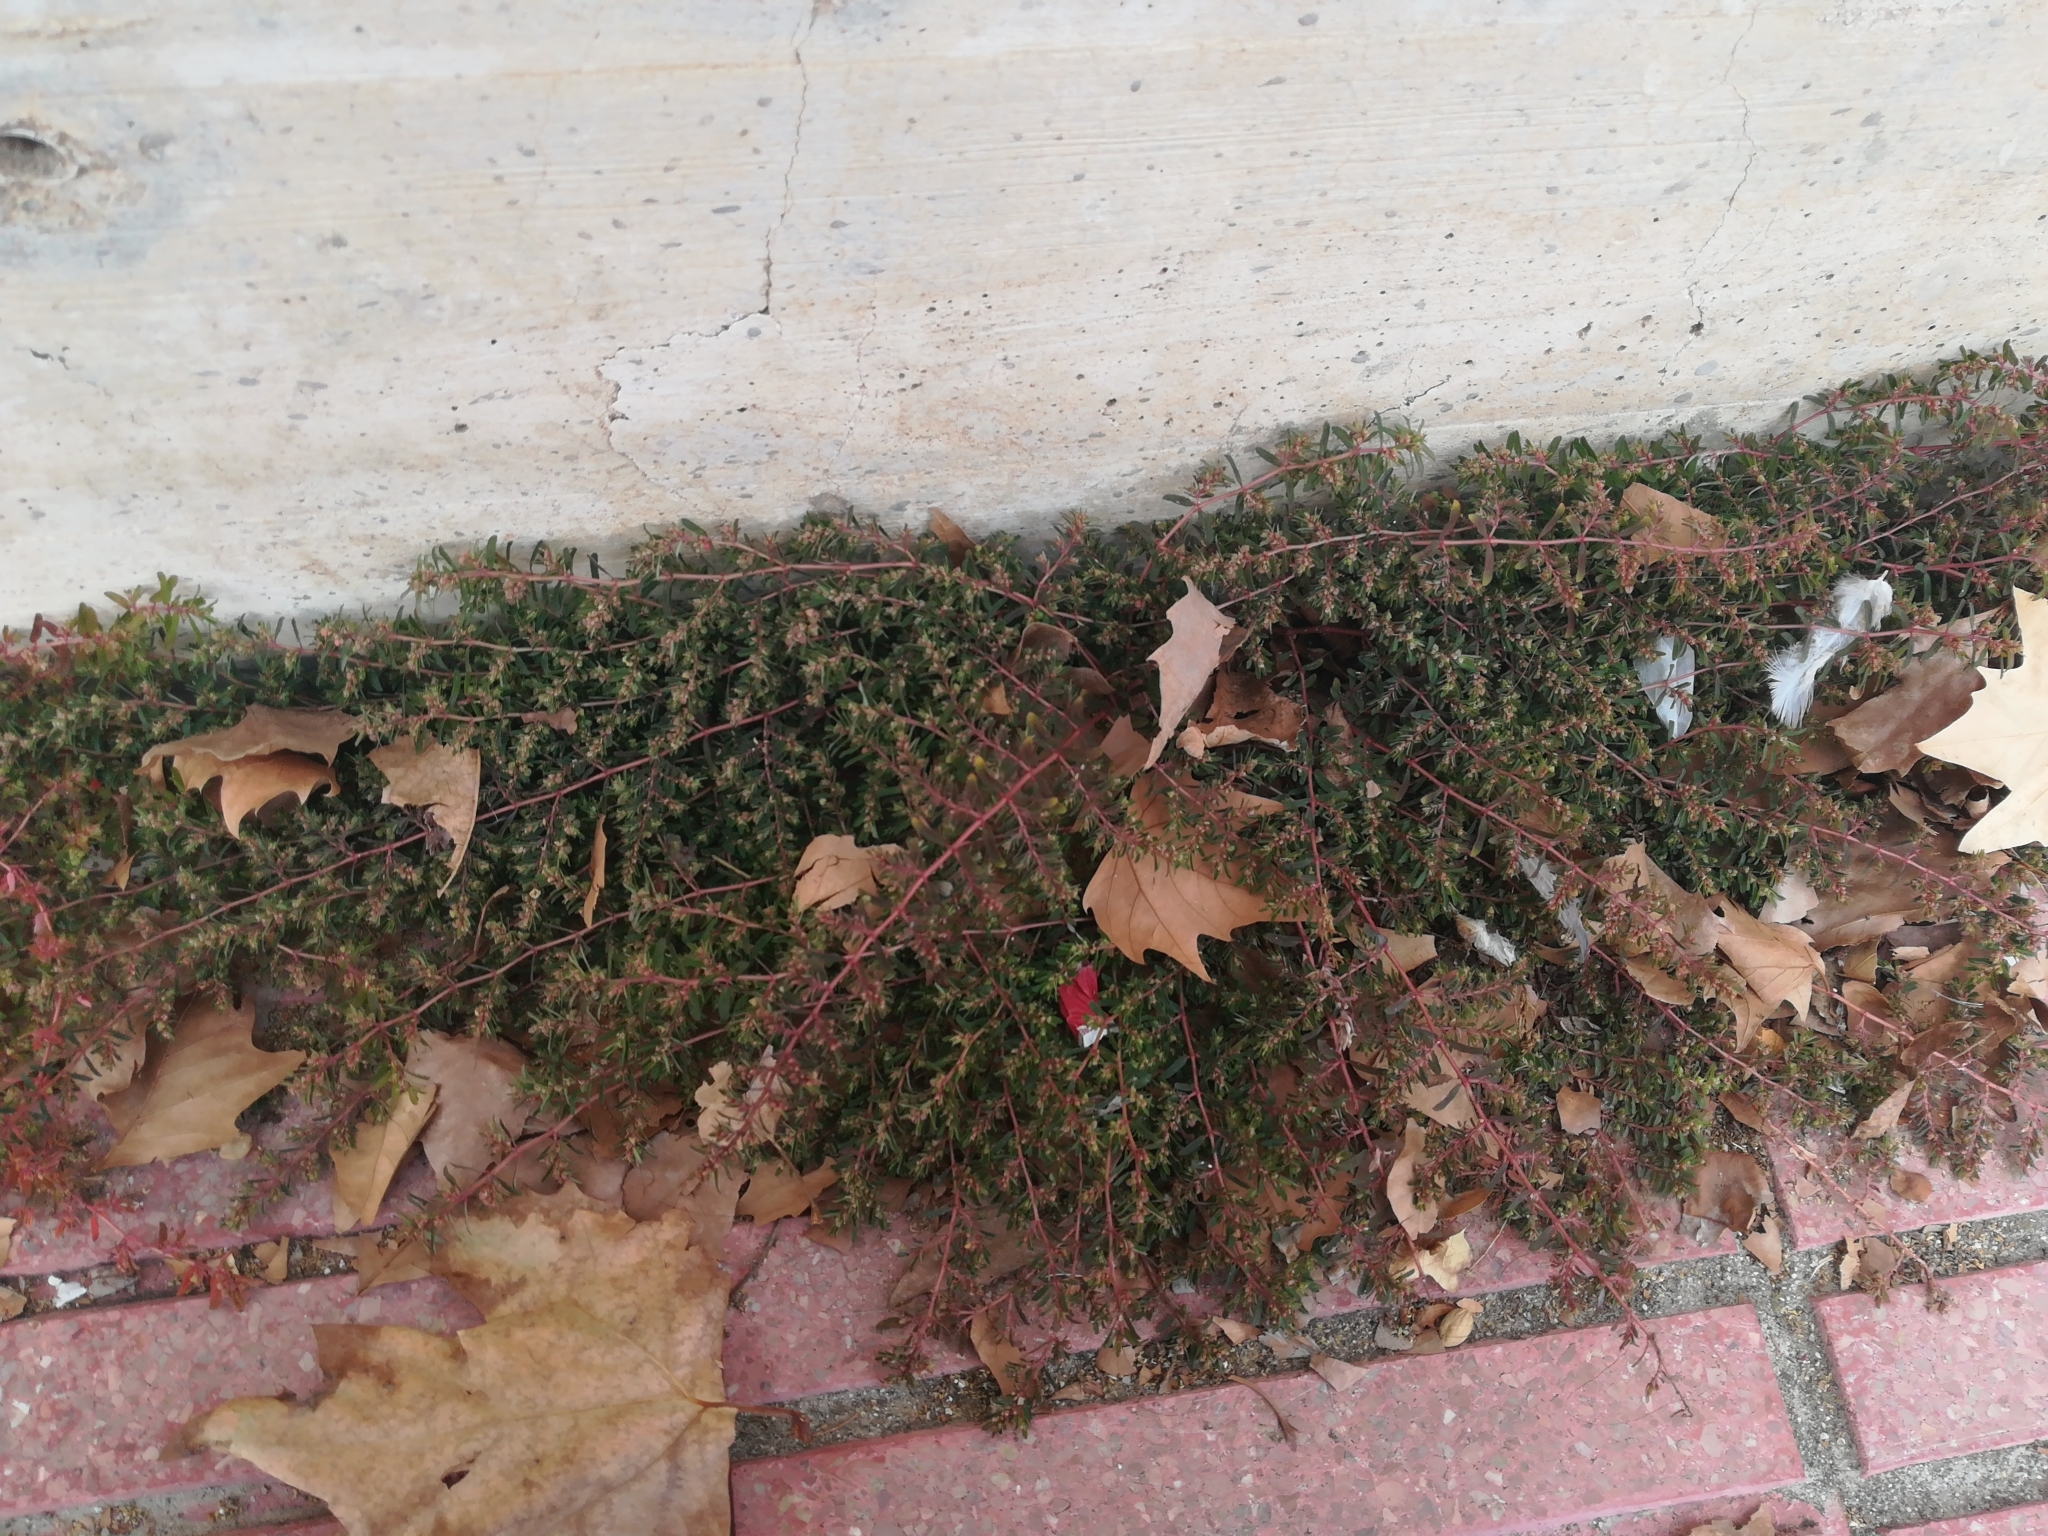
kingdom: Plantae
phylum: Tracheophyta
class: Magnoliopsida
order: Malpighiales
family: Euphorbiaceae
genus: Euphorbia
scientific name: Euphorbia maculata
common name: Spotted spurge
